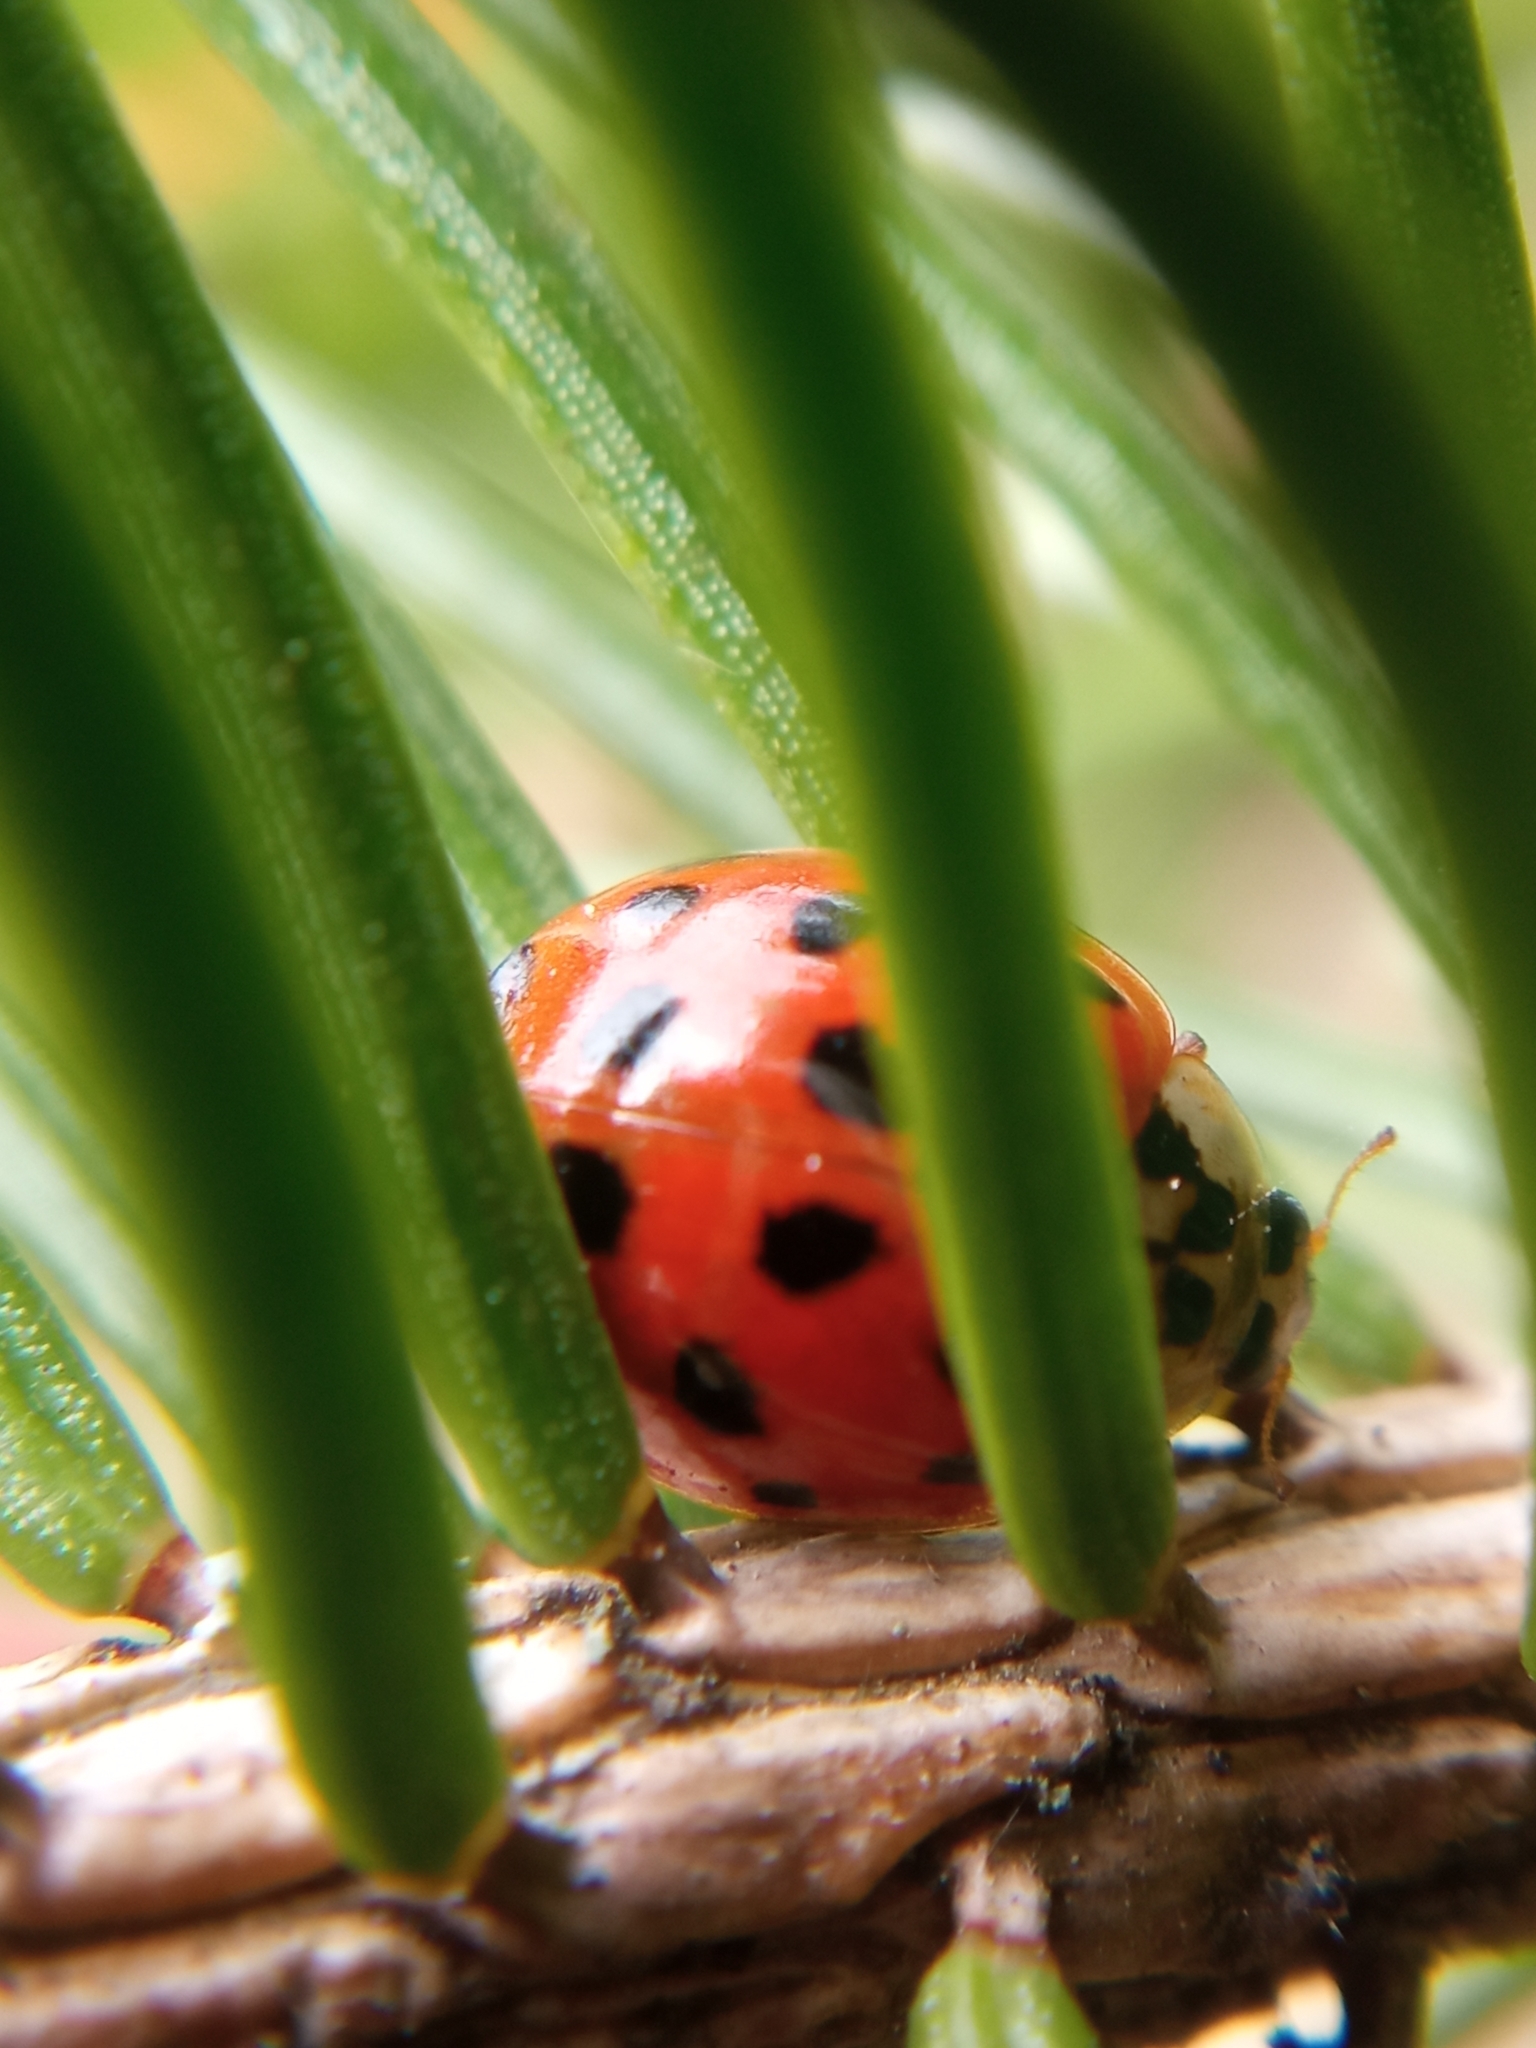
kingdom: Animalia
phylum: Arthropoda
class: Insecta
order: Coleoptera
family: Coccinellidae
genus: Harmonia
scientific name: Harmonia axyridis
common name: Harlequin ladybird
